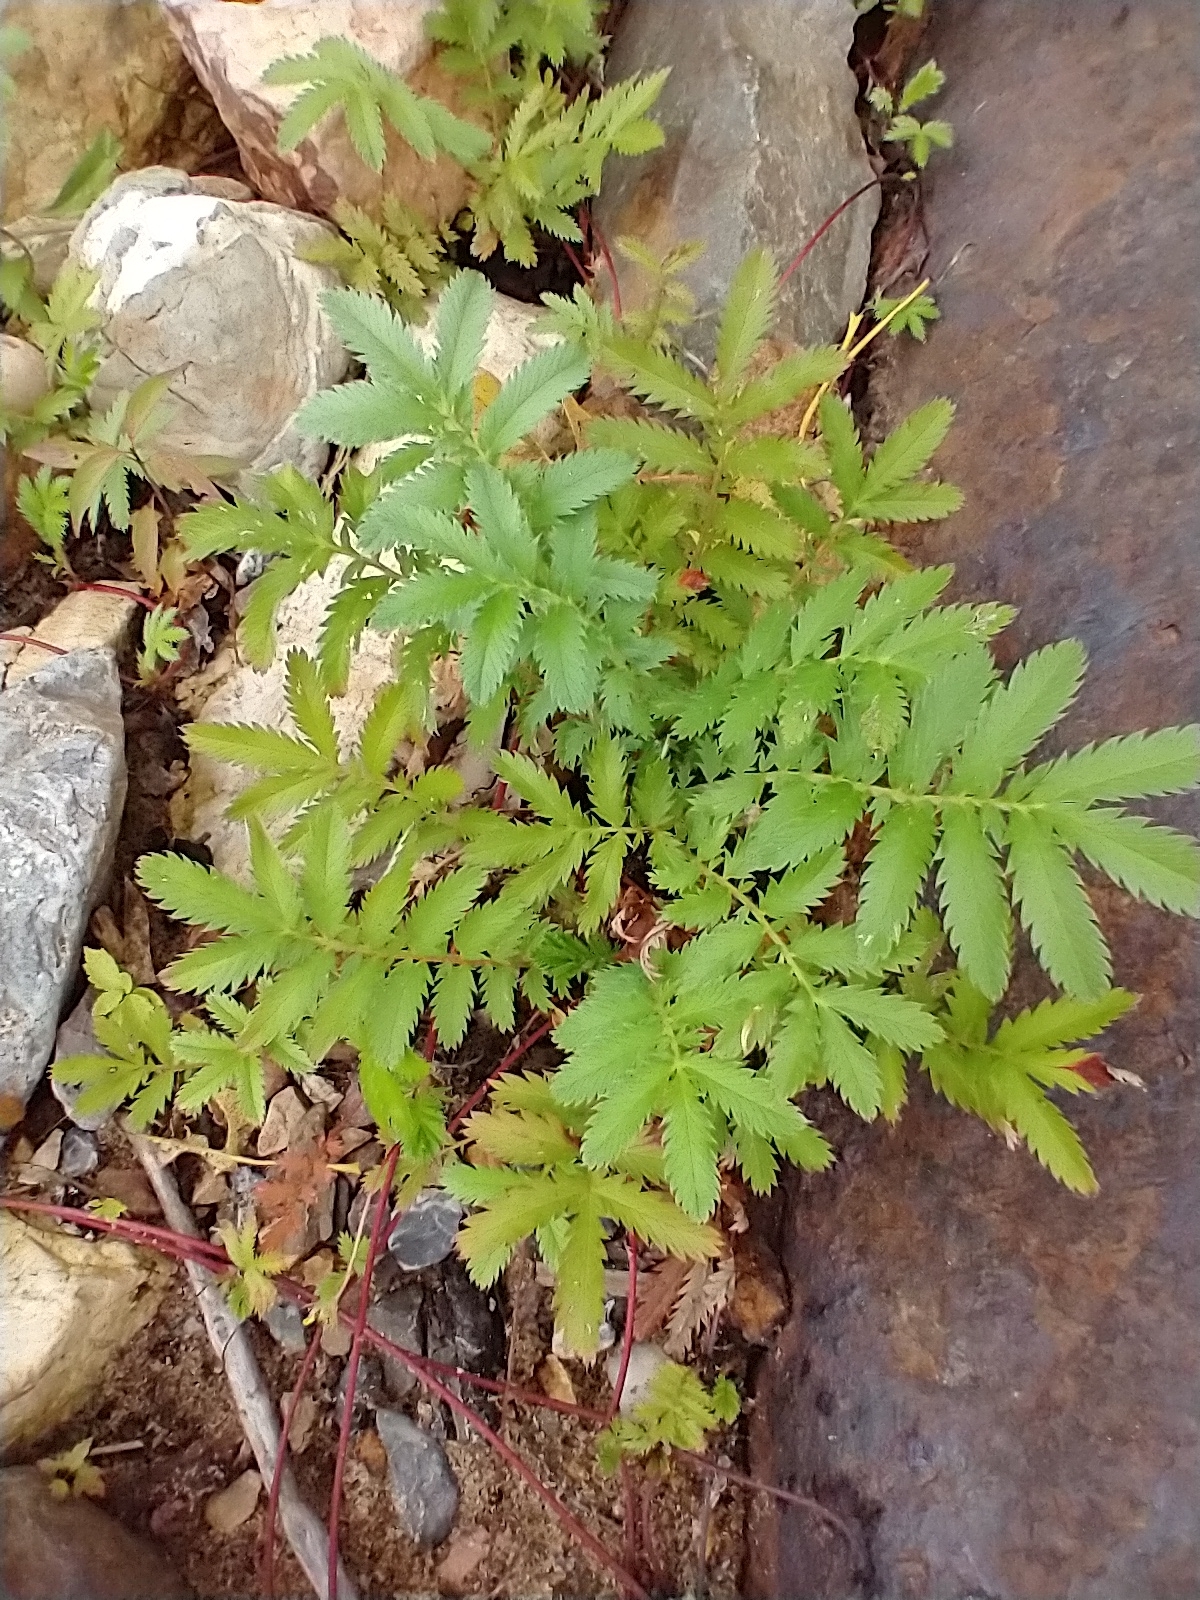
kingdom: Plantae
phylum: Tracheophyta
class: Magnoliopsida
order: Rosales
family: Rosaceae
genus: Argentina
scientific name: Argentina anserina
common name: Common silverweed
